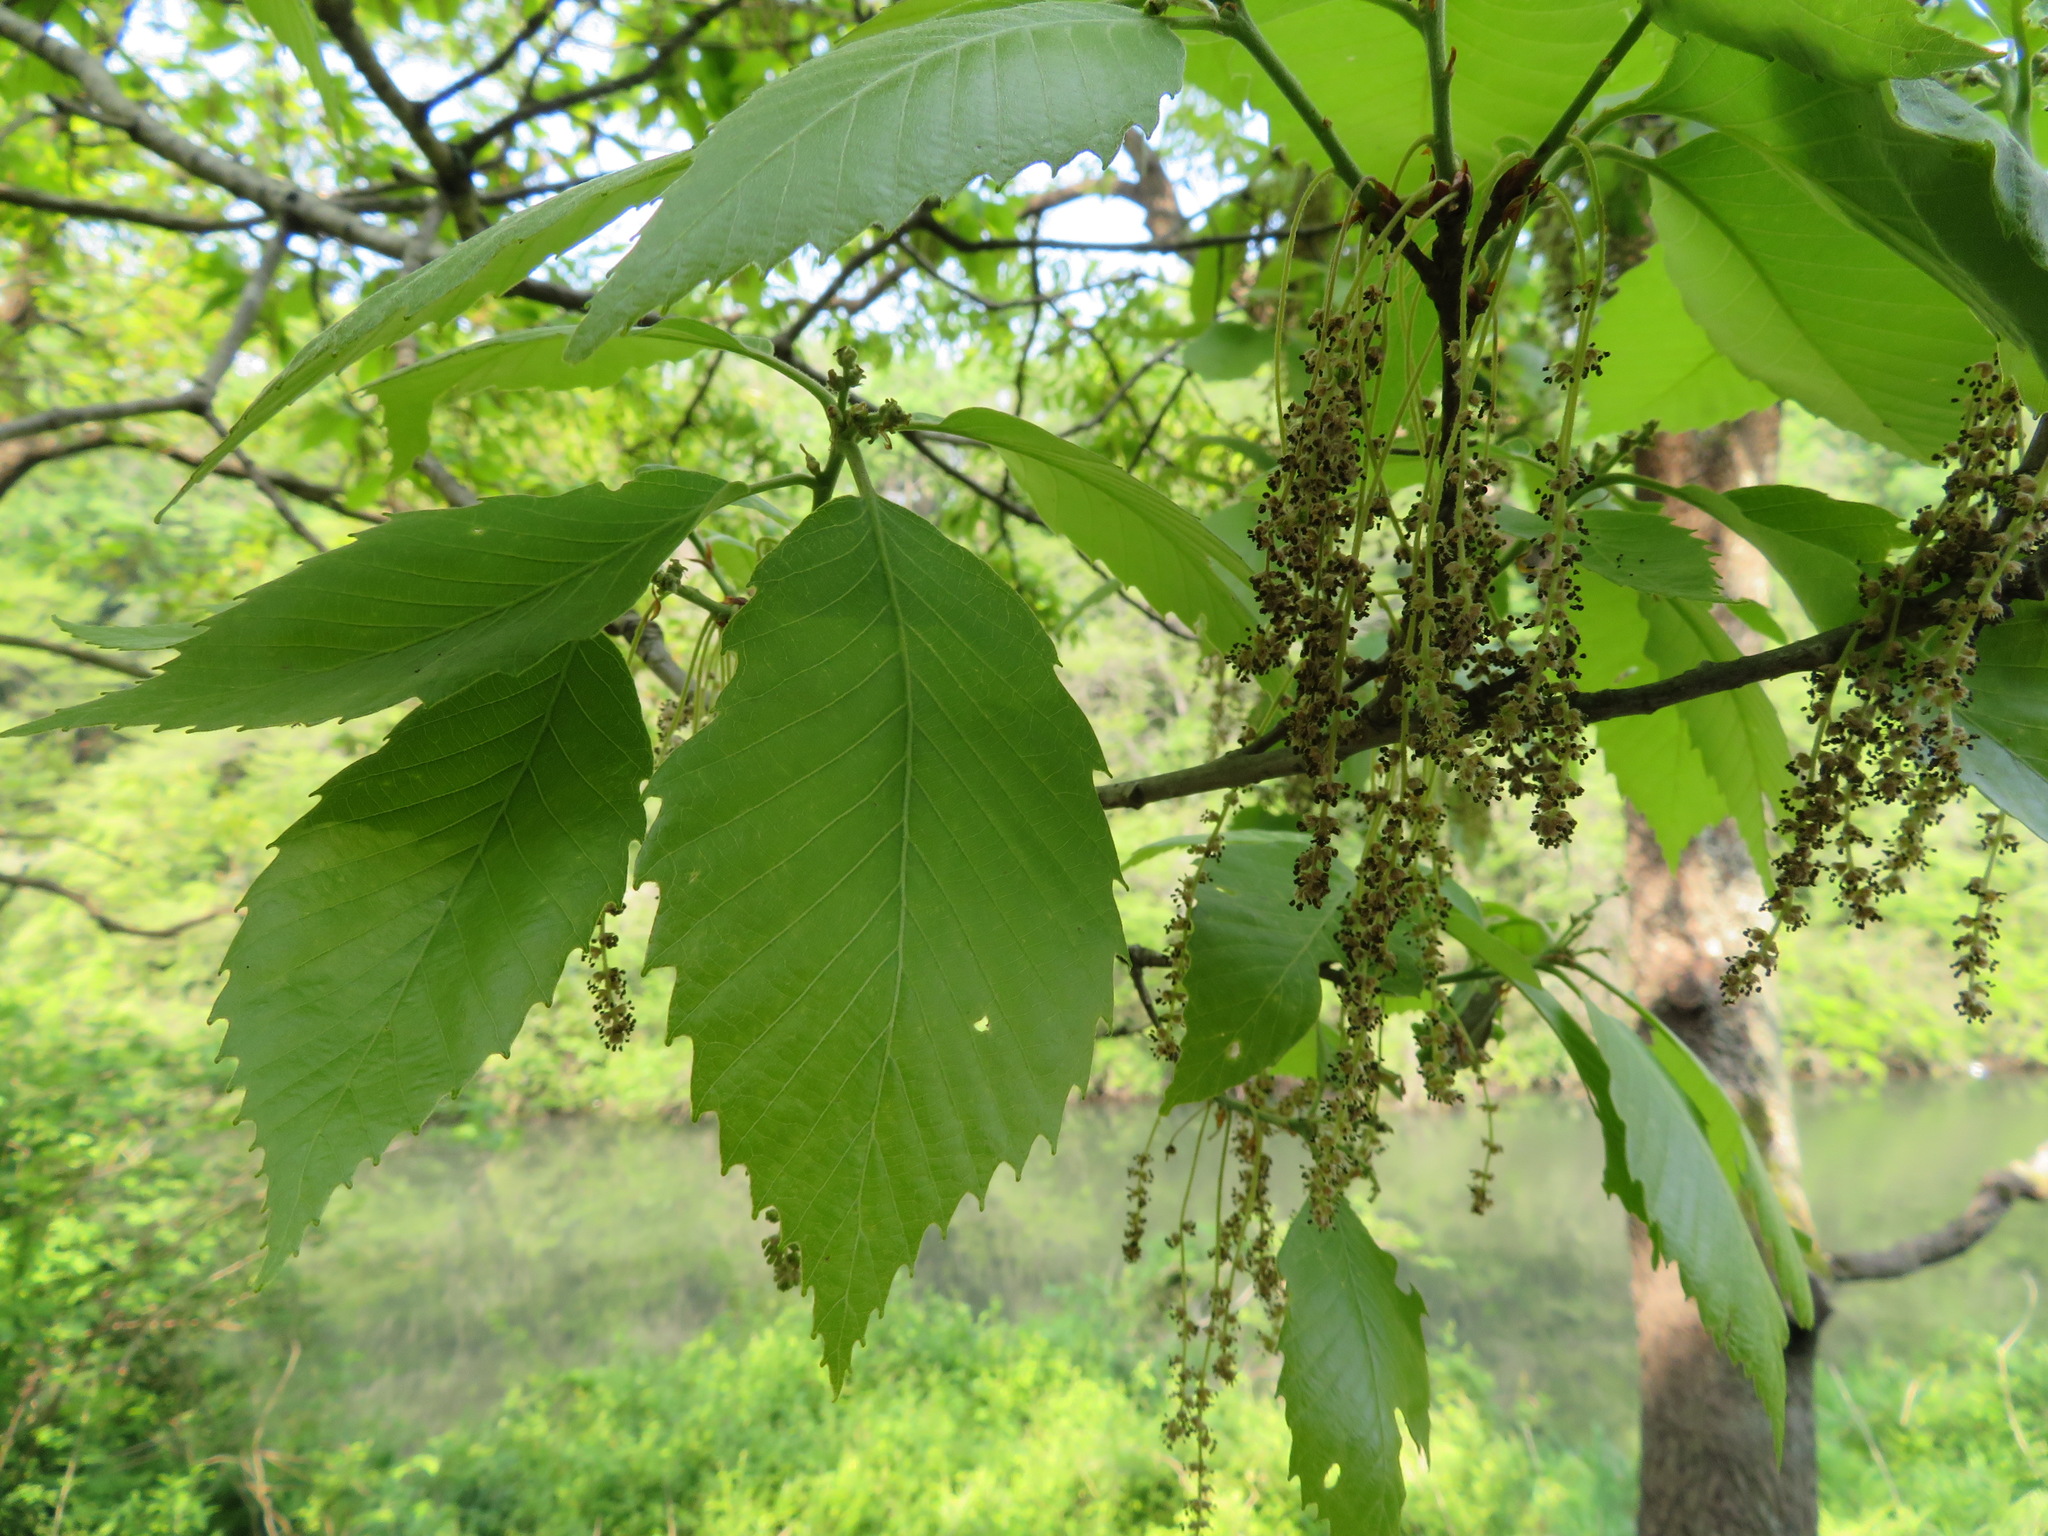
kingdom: Plantae
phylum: Tracheophyta
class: Magnoliopsida
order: Fagales
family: Fagaceae
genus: Quercus
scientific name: Quercus serrata
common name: Bao li
